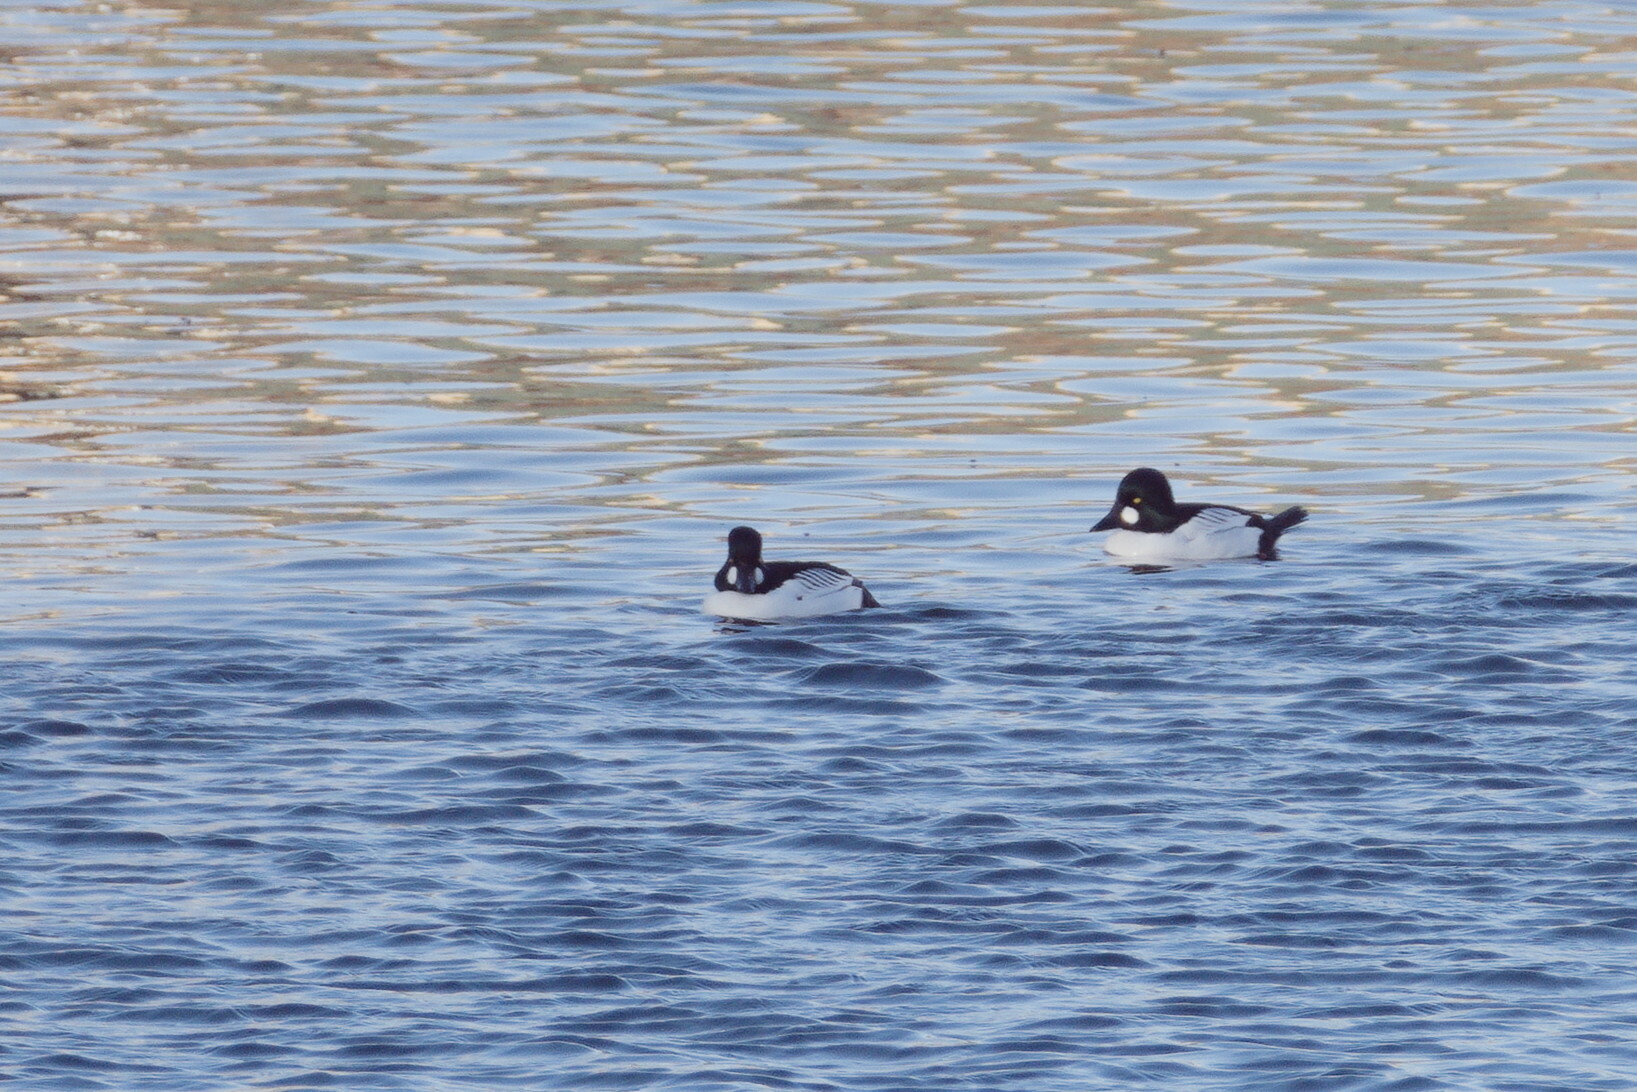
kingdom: Animalia
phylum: Chordata
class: Aves
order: Anseriformes
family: Anatidae
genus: Bucephala
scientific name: Bucephala clangula
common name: Common goldeneye
